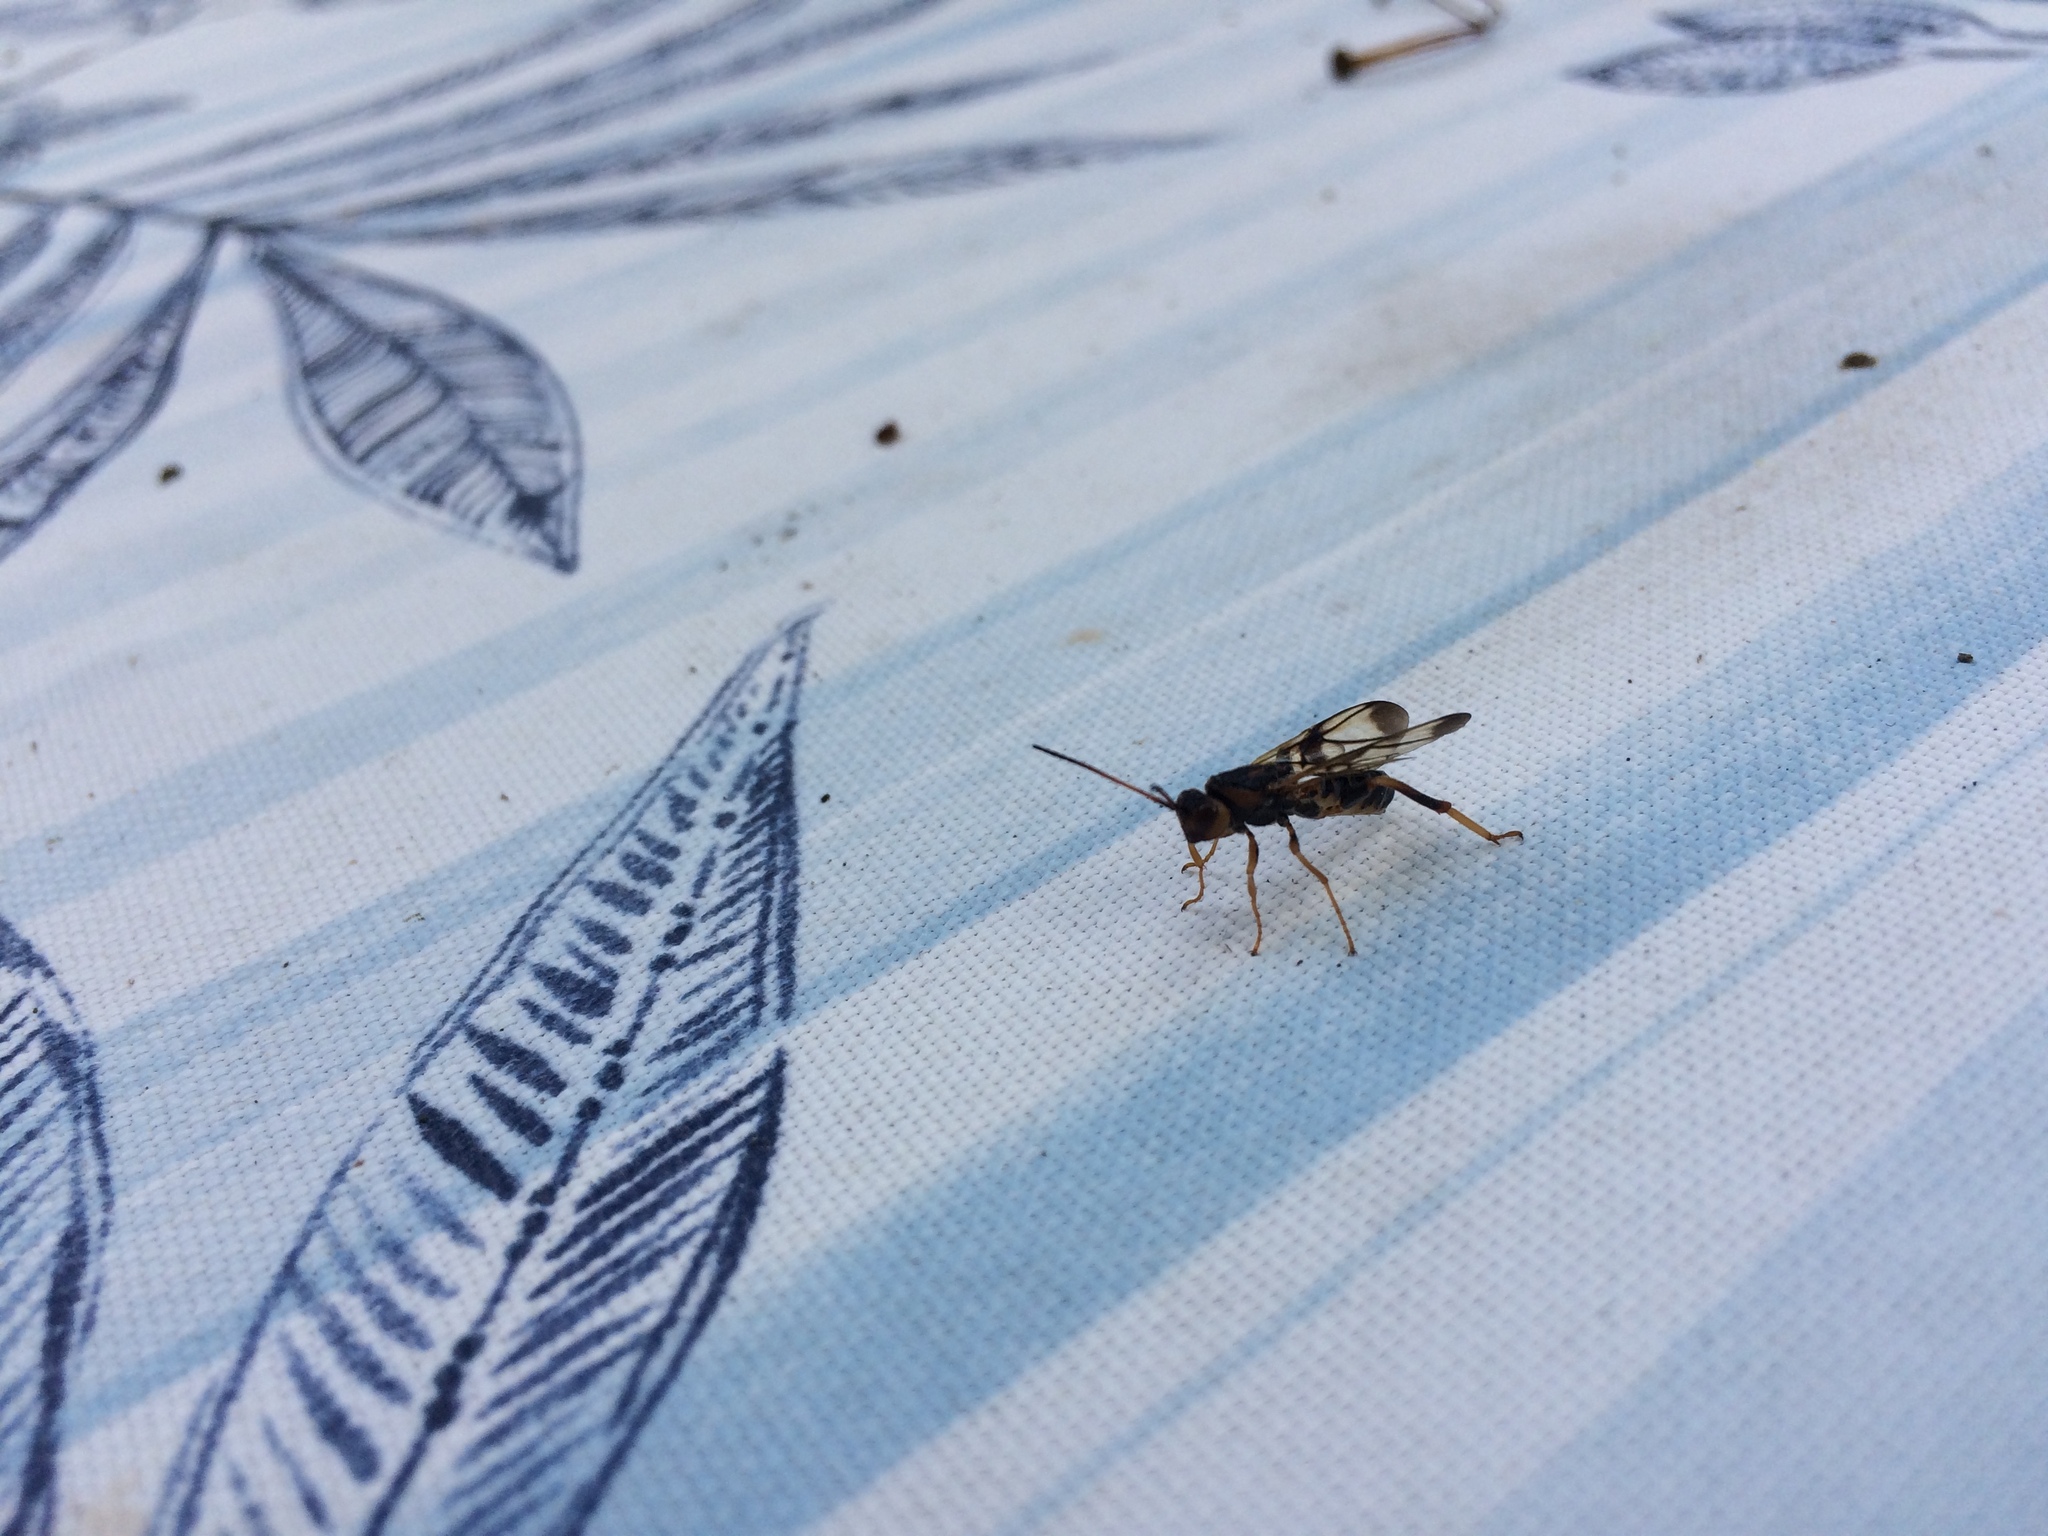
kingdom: Animalia
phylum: Arthropoda
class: Insecta
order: Hymenoptera
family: Ibaliidae
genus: Ibalia
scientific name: Ibalia anceps
